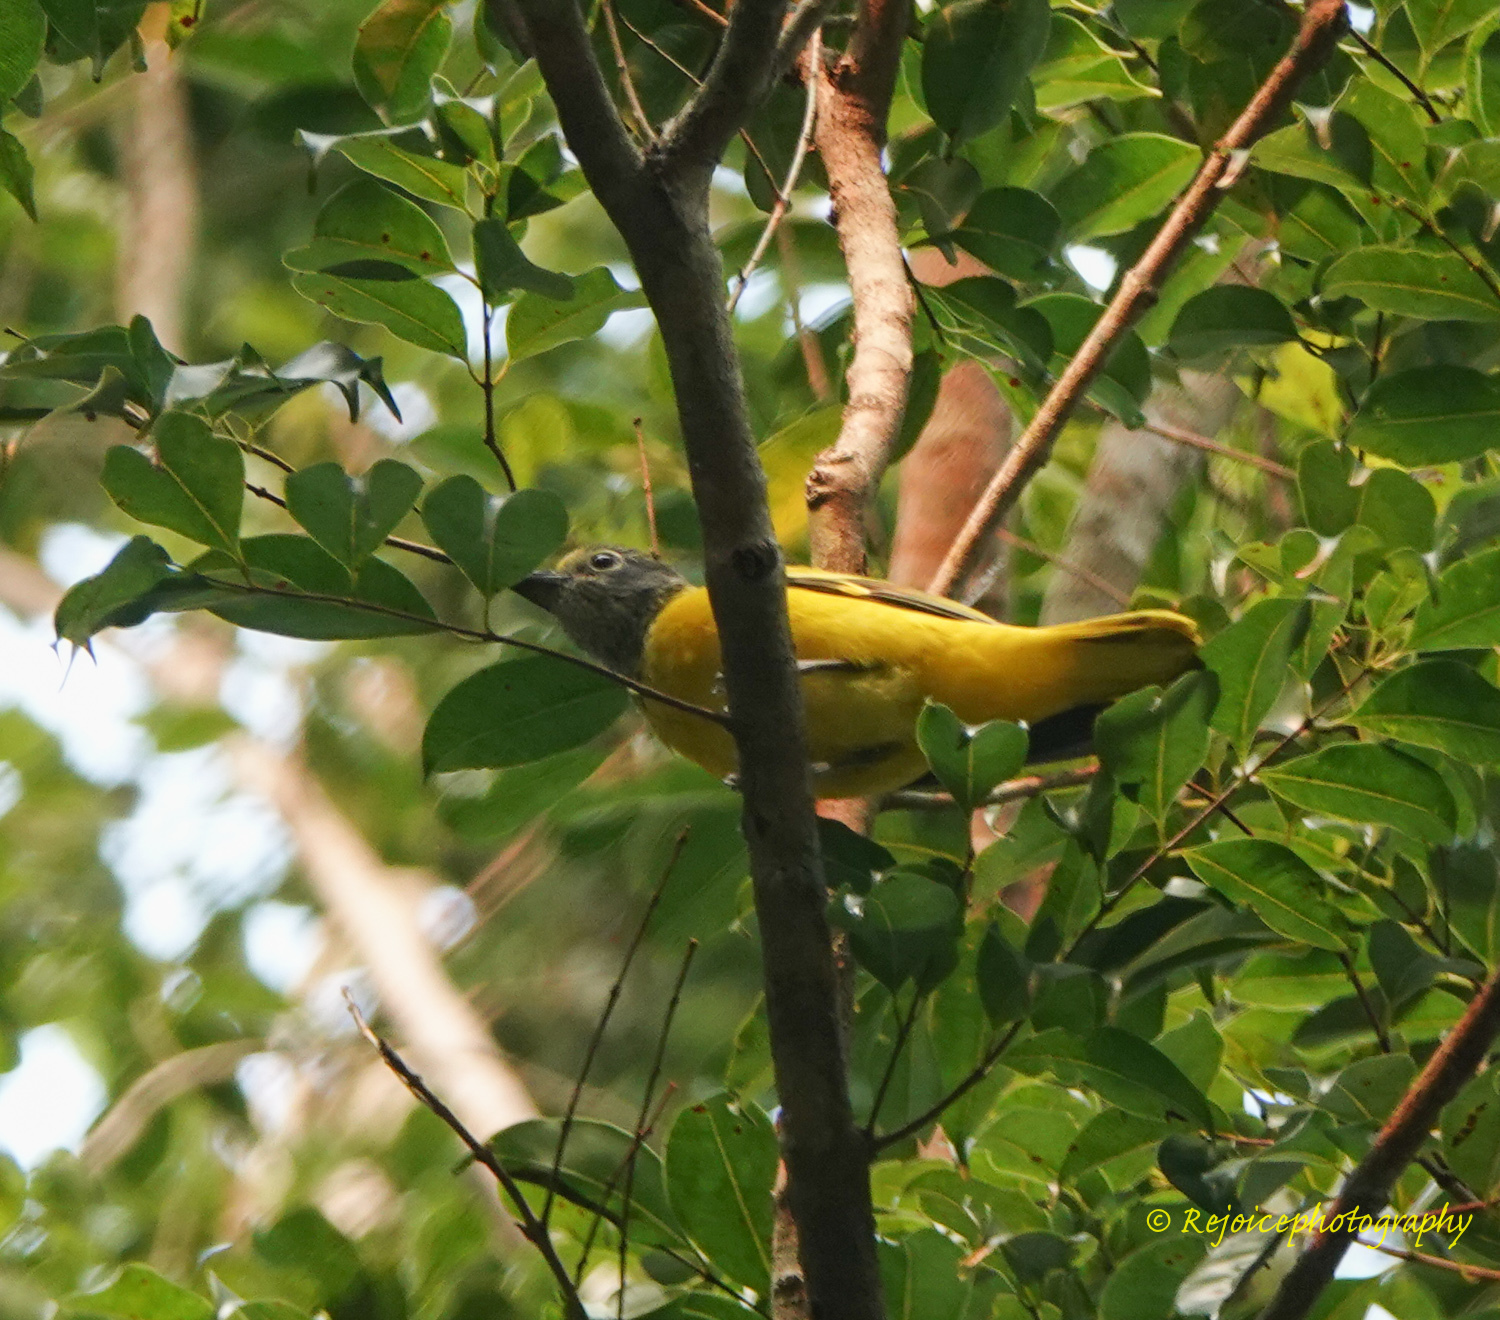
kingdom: Animalia
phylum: Chordata
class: Aves
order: Passeriformes
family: Oriolidae
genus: Oriolus
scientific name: Oriolus xanthornus
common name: Black-hooded oriole
